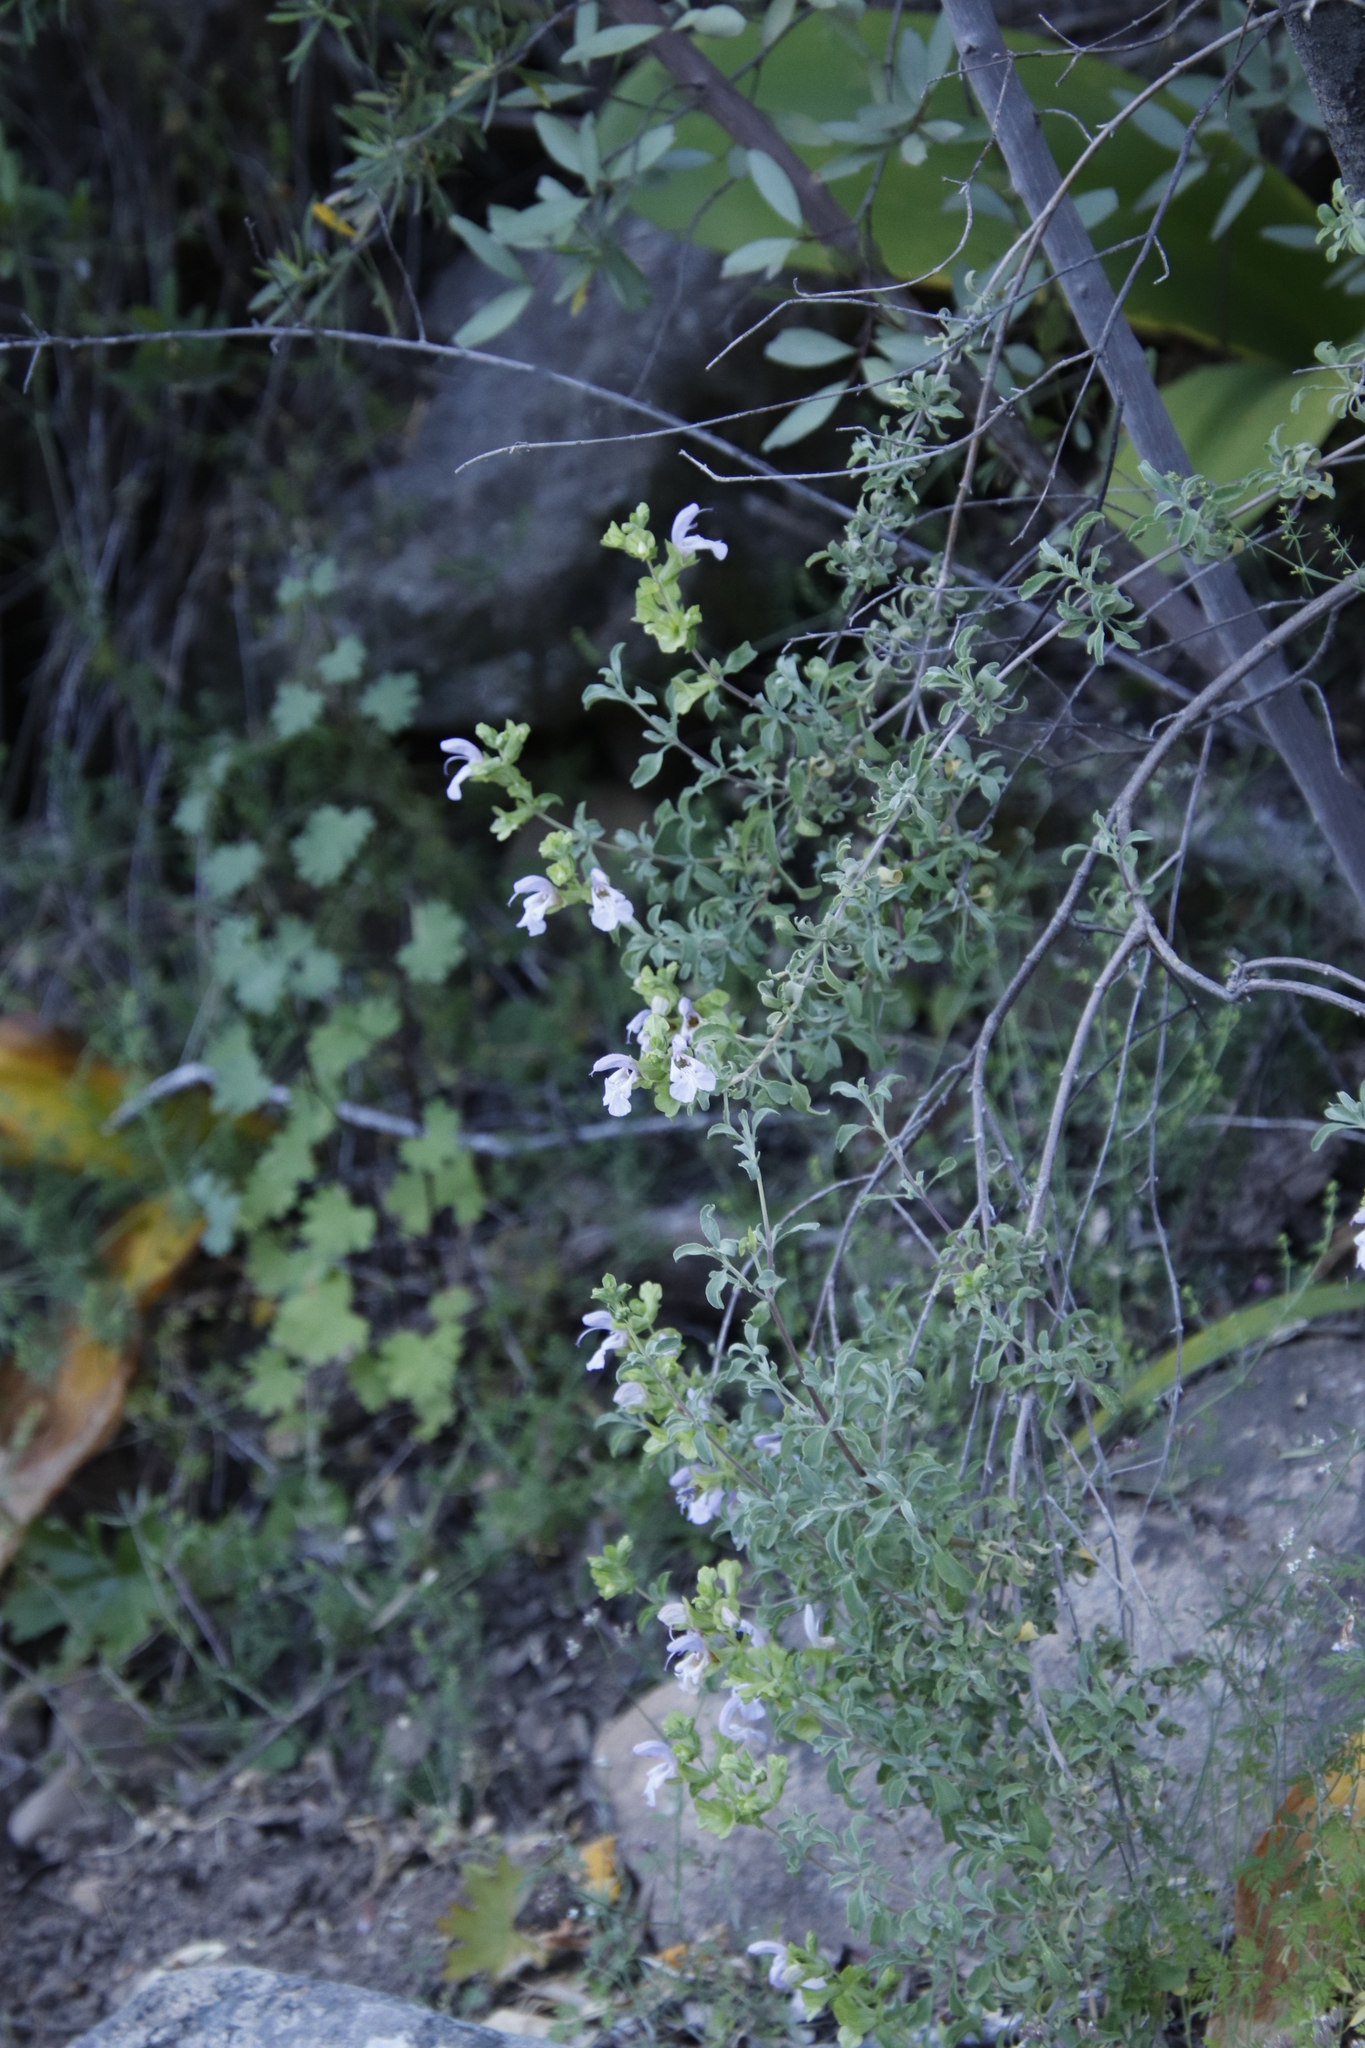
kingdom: Plantae
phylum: Tracheophyta
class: Magnoliopsida
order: Lamiales
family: Lamiaceae
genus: Salvia
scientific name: Salvia dentata
